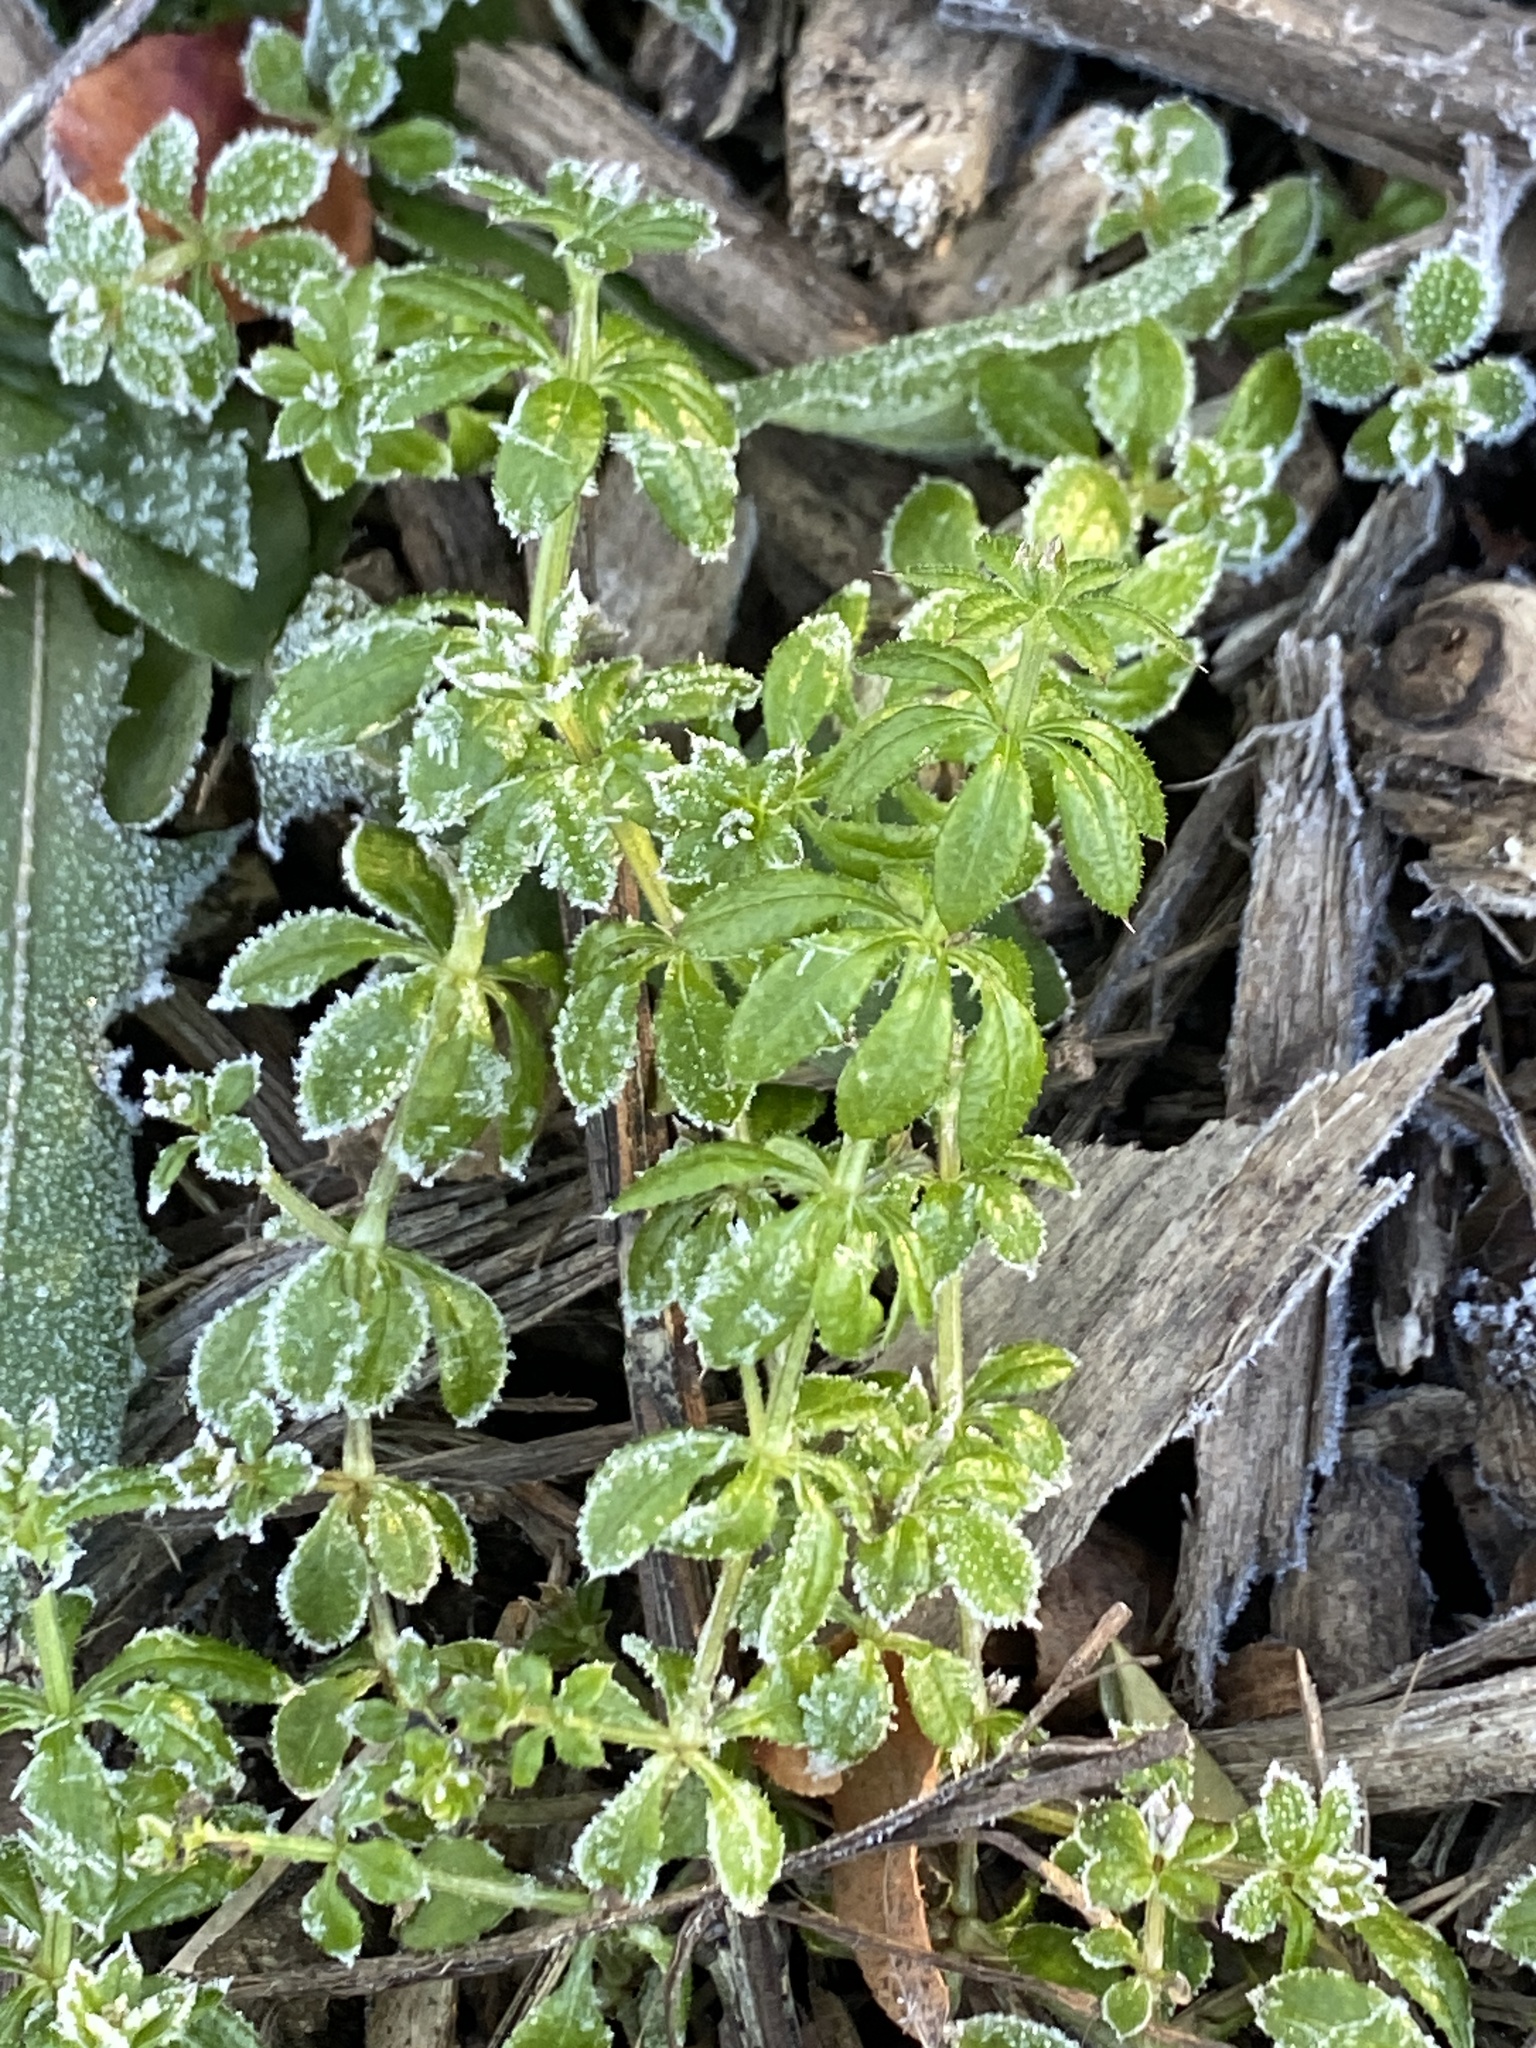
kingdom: Plantae
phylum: Tracheophyta
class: Magnoliopsida
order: Gentianales
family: Rubiaceae
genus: Galium
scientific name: Galium aparine
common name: Cleavers
